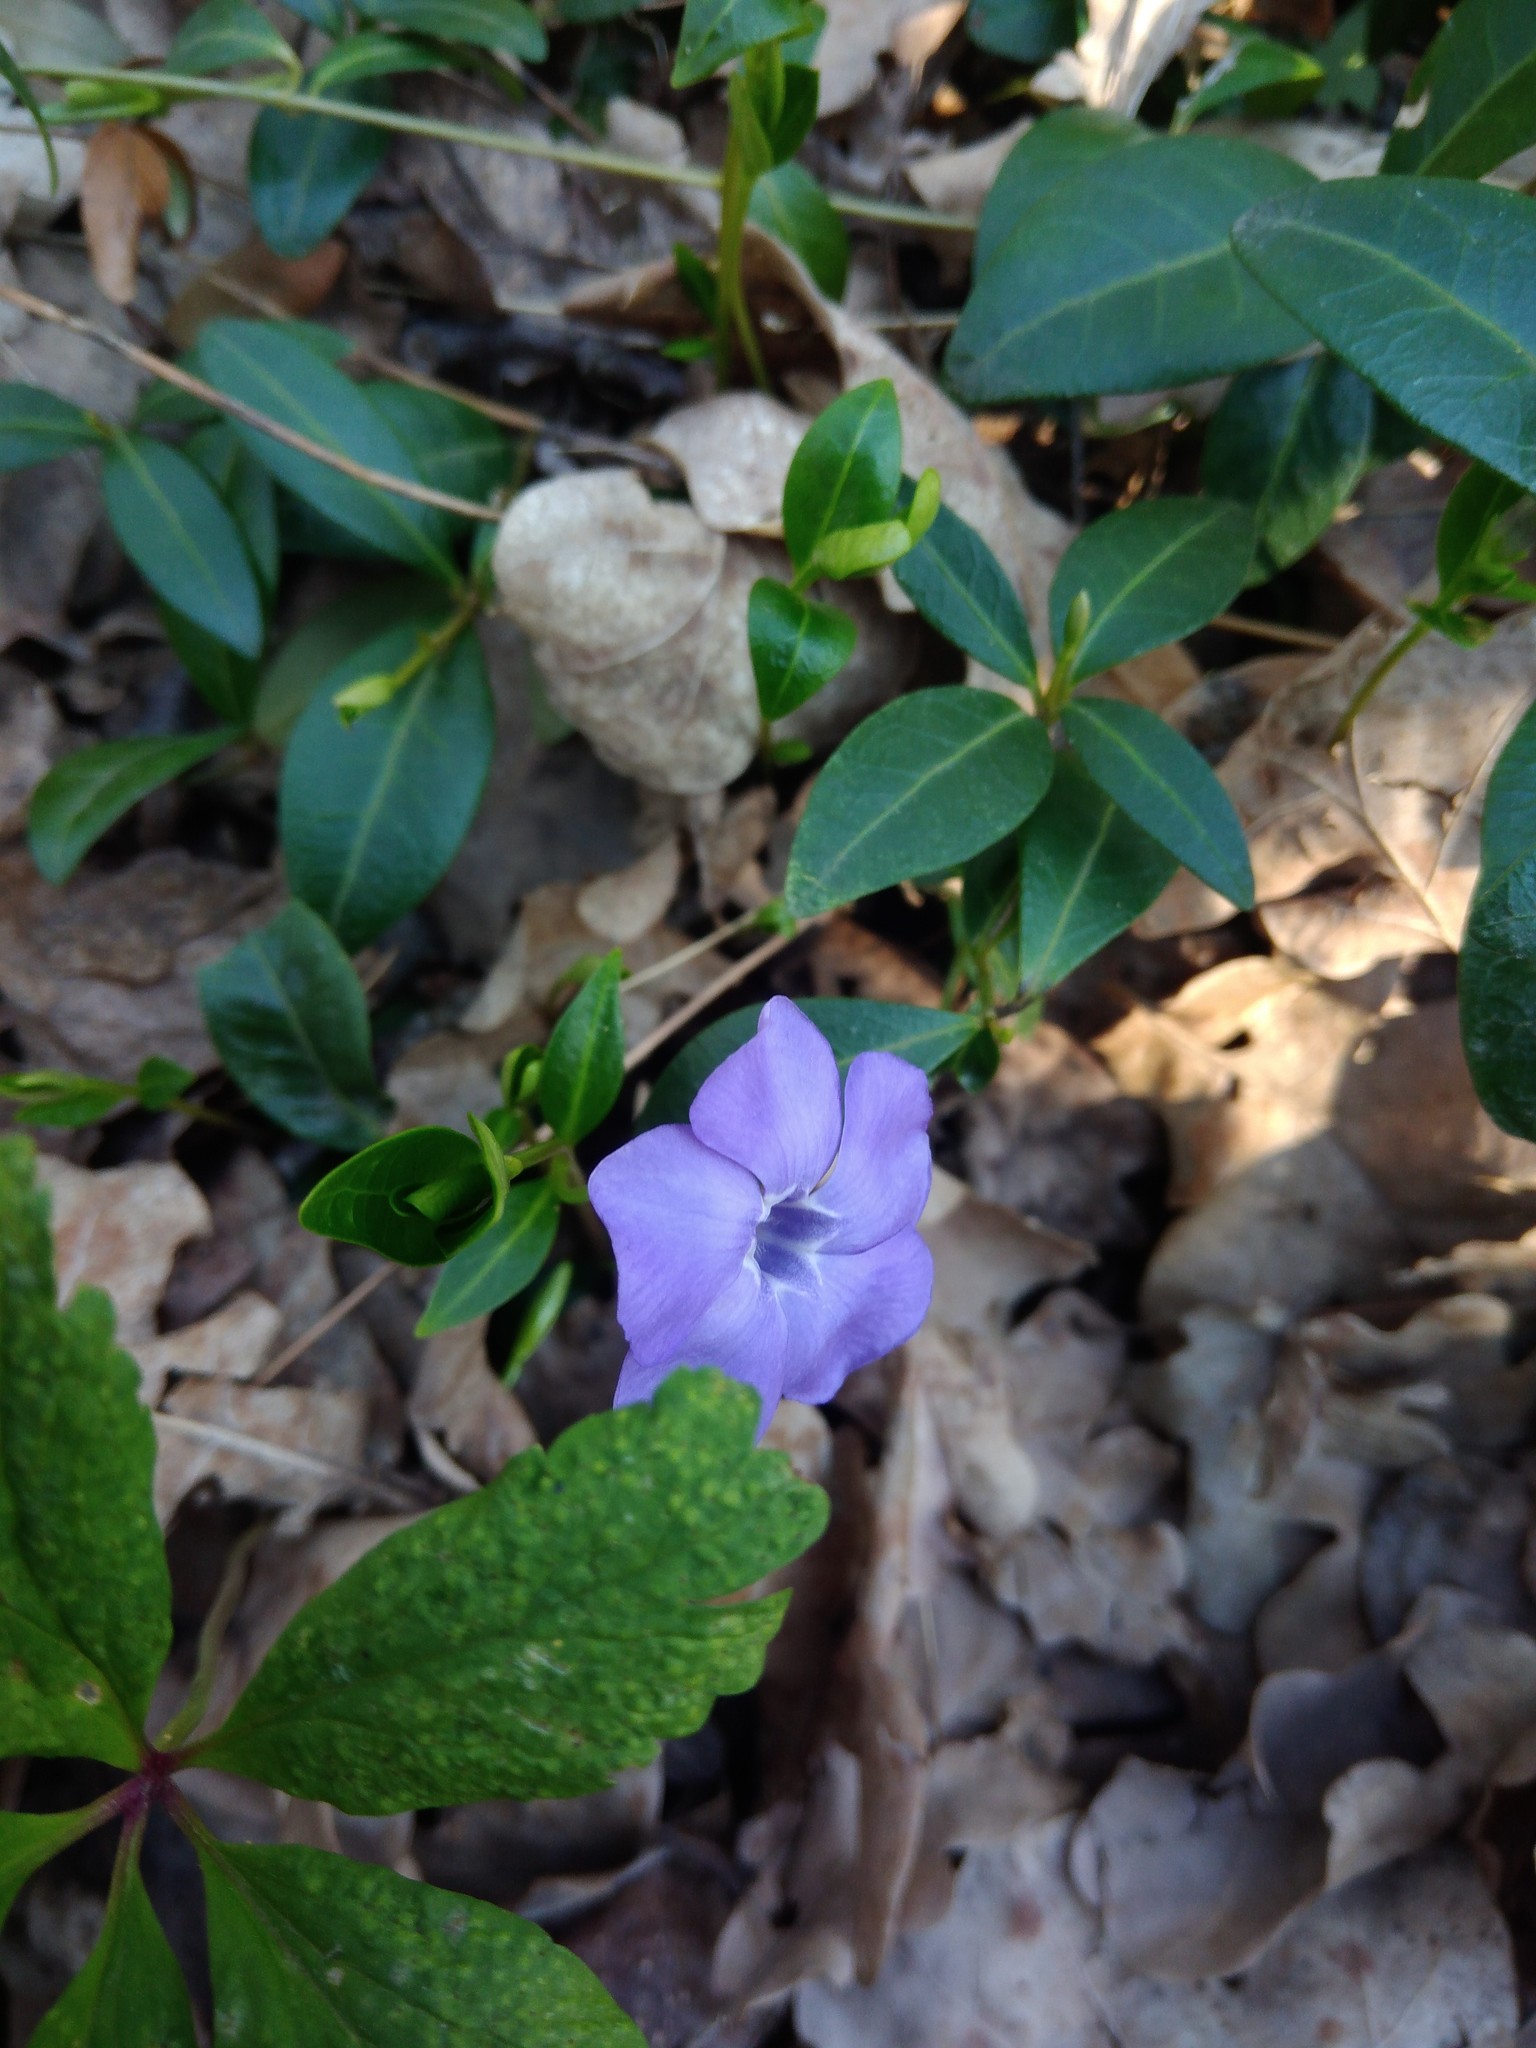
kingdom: Plantae
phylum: Tracheophyta
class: Magnoliopsida
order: Gentianales
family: Apocynaceae
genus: Vinca
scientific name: Vinca minor
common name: Lesser periwinkle
